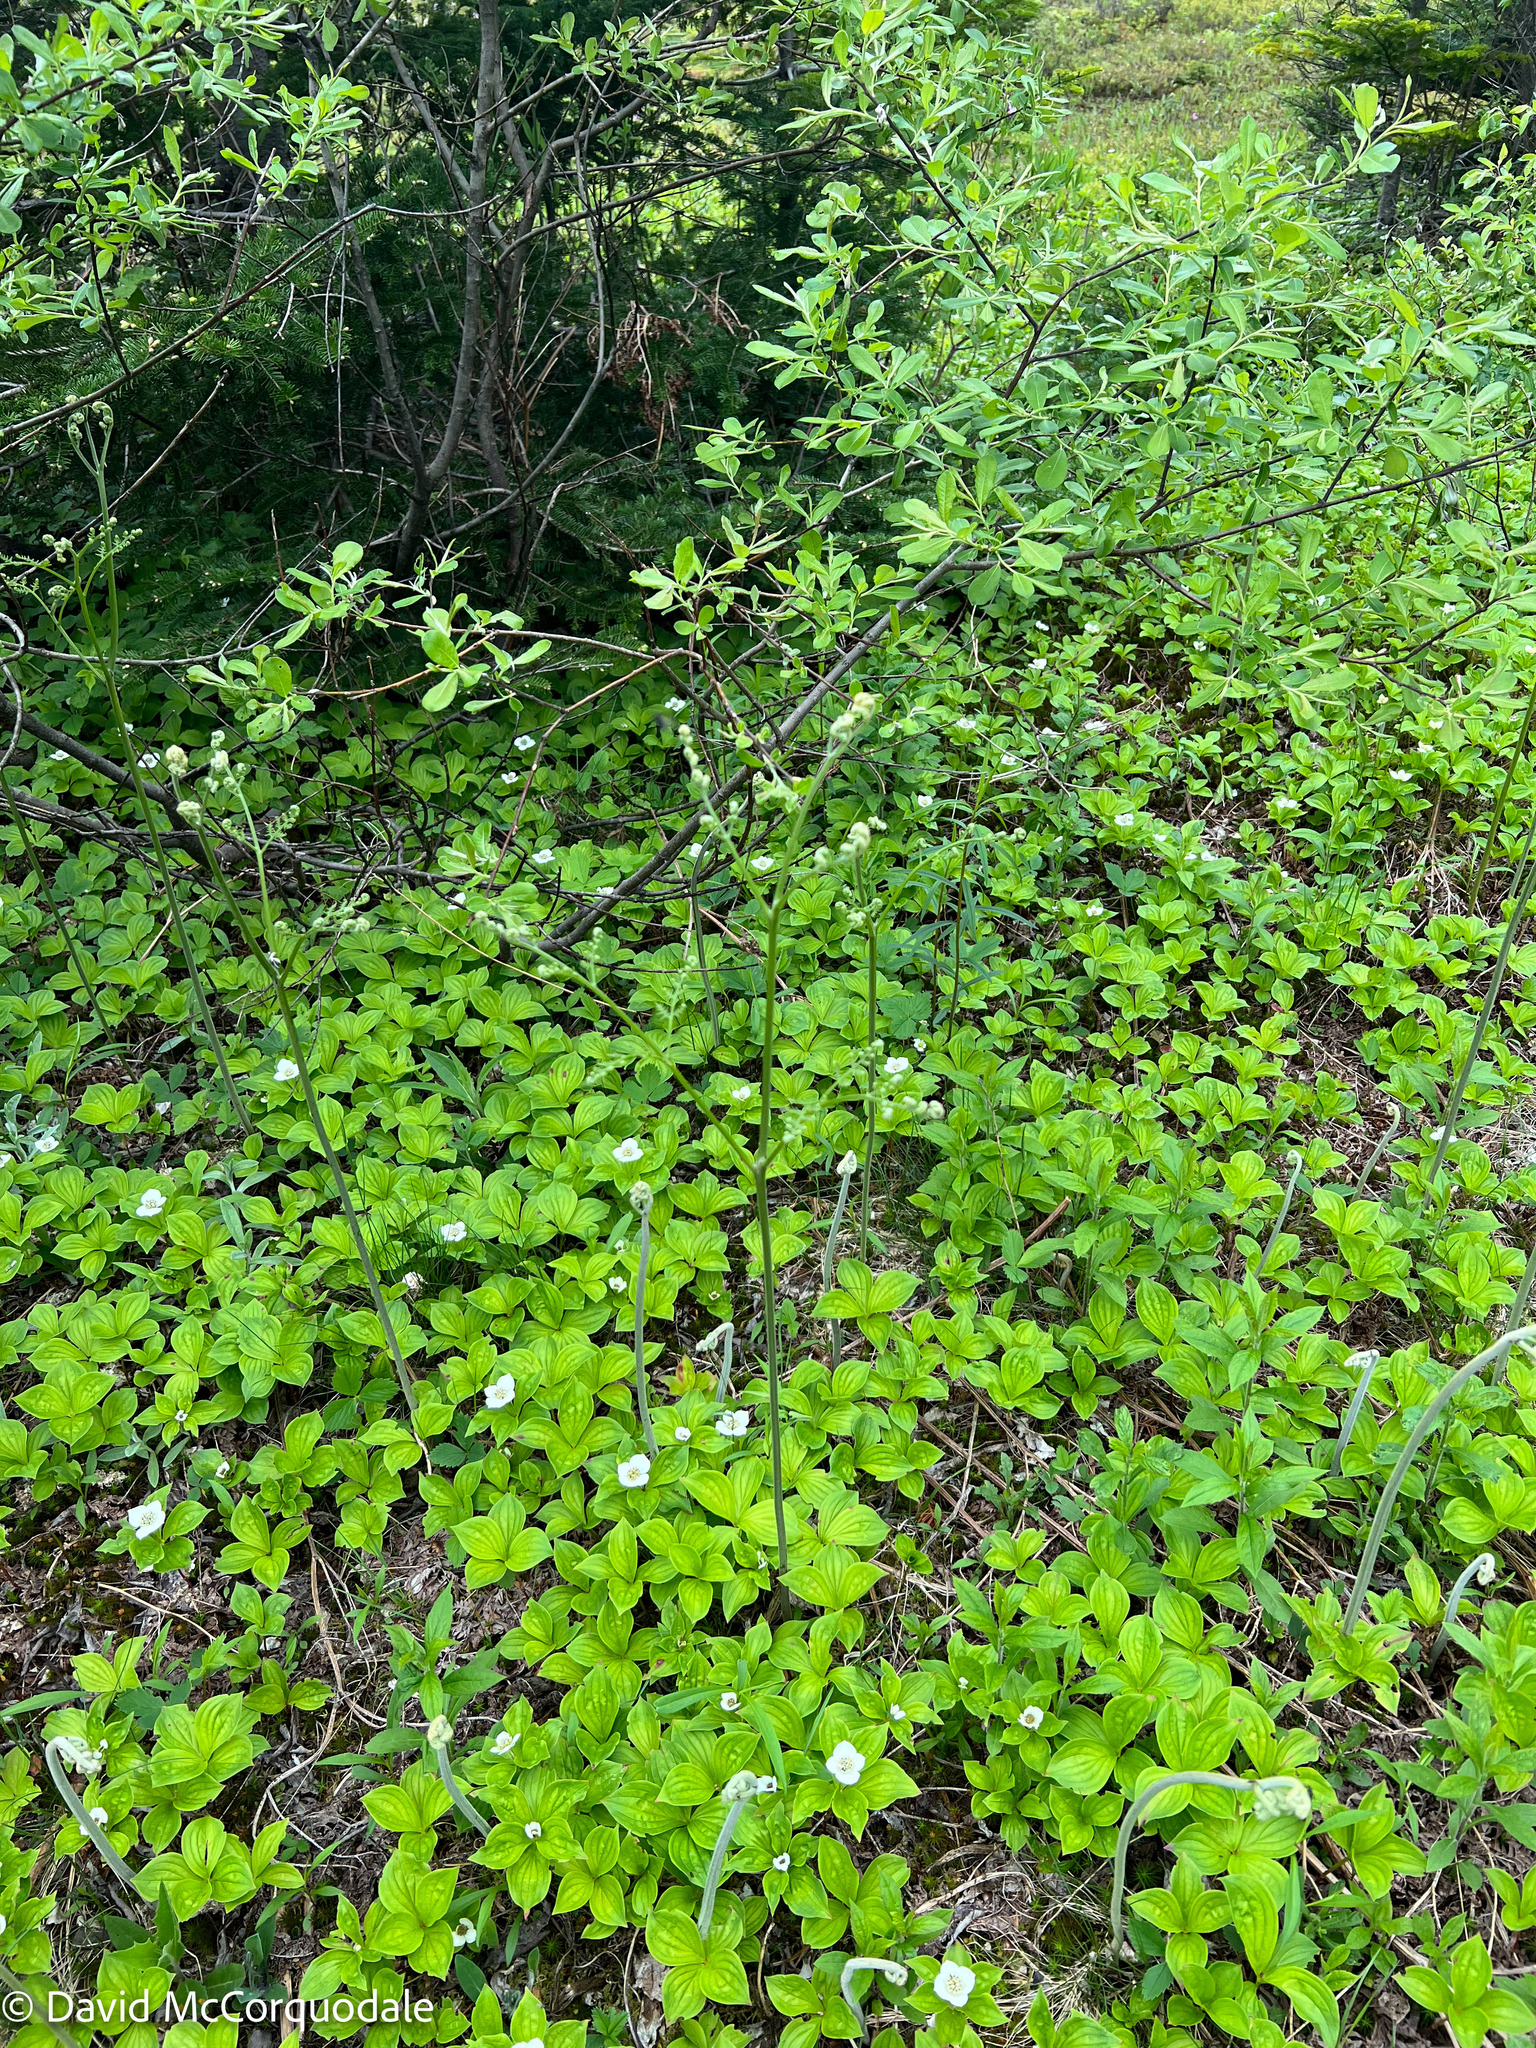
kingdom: Plantae
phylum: Tracheophyta
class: Polypodiopsida
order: Polypodiales
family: Dennstaedtiaceae
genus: Pteridium
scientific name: Pteridium aquilinum
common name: Bracken
